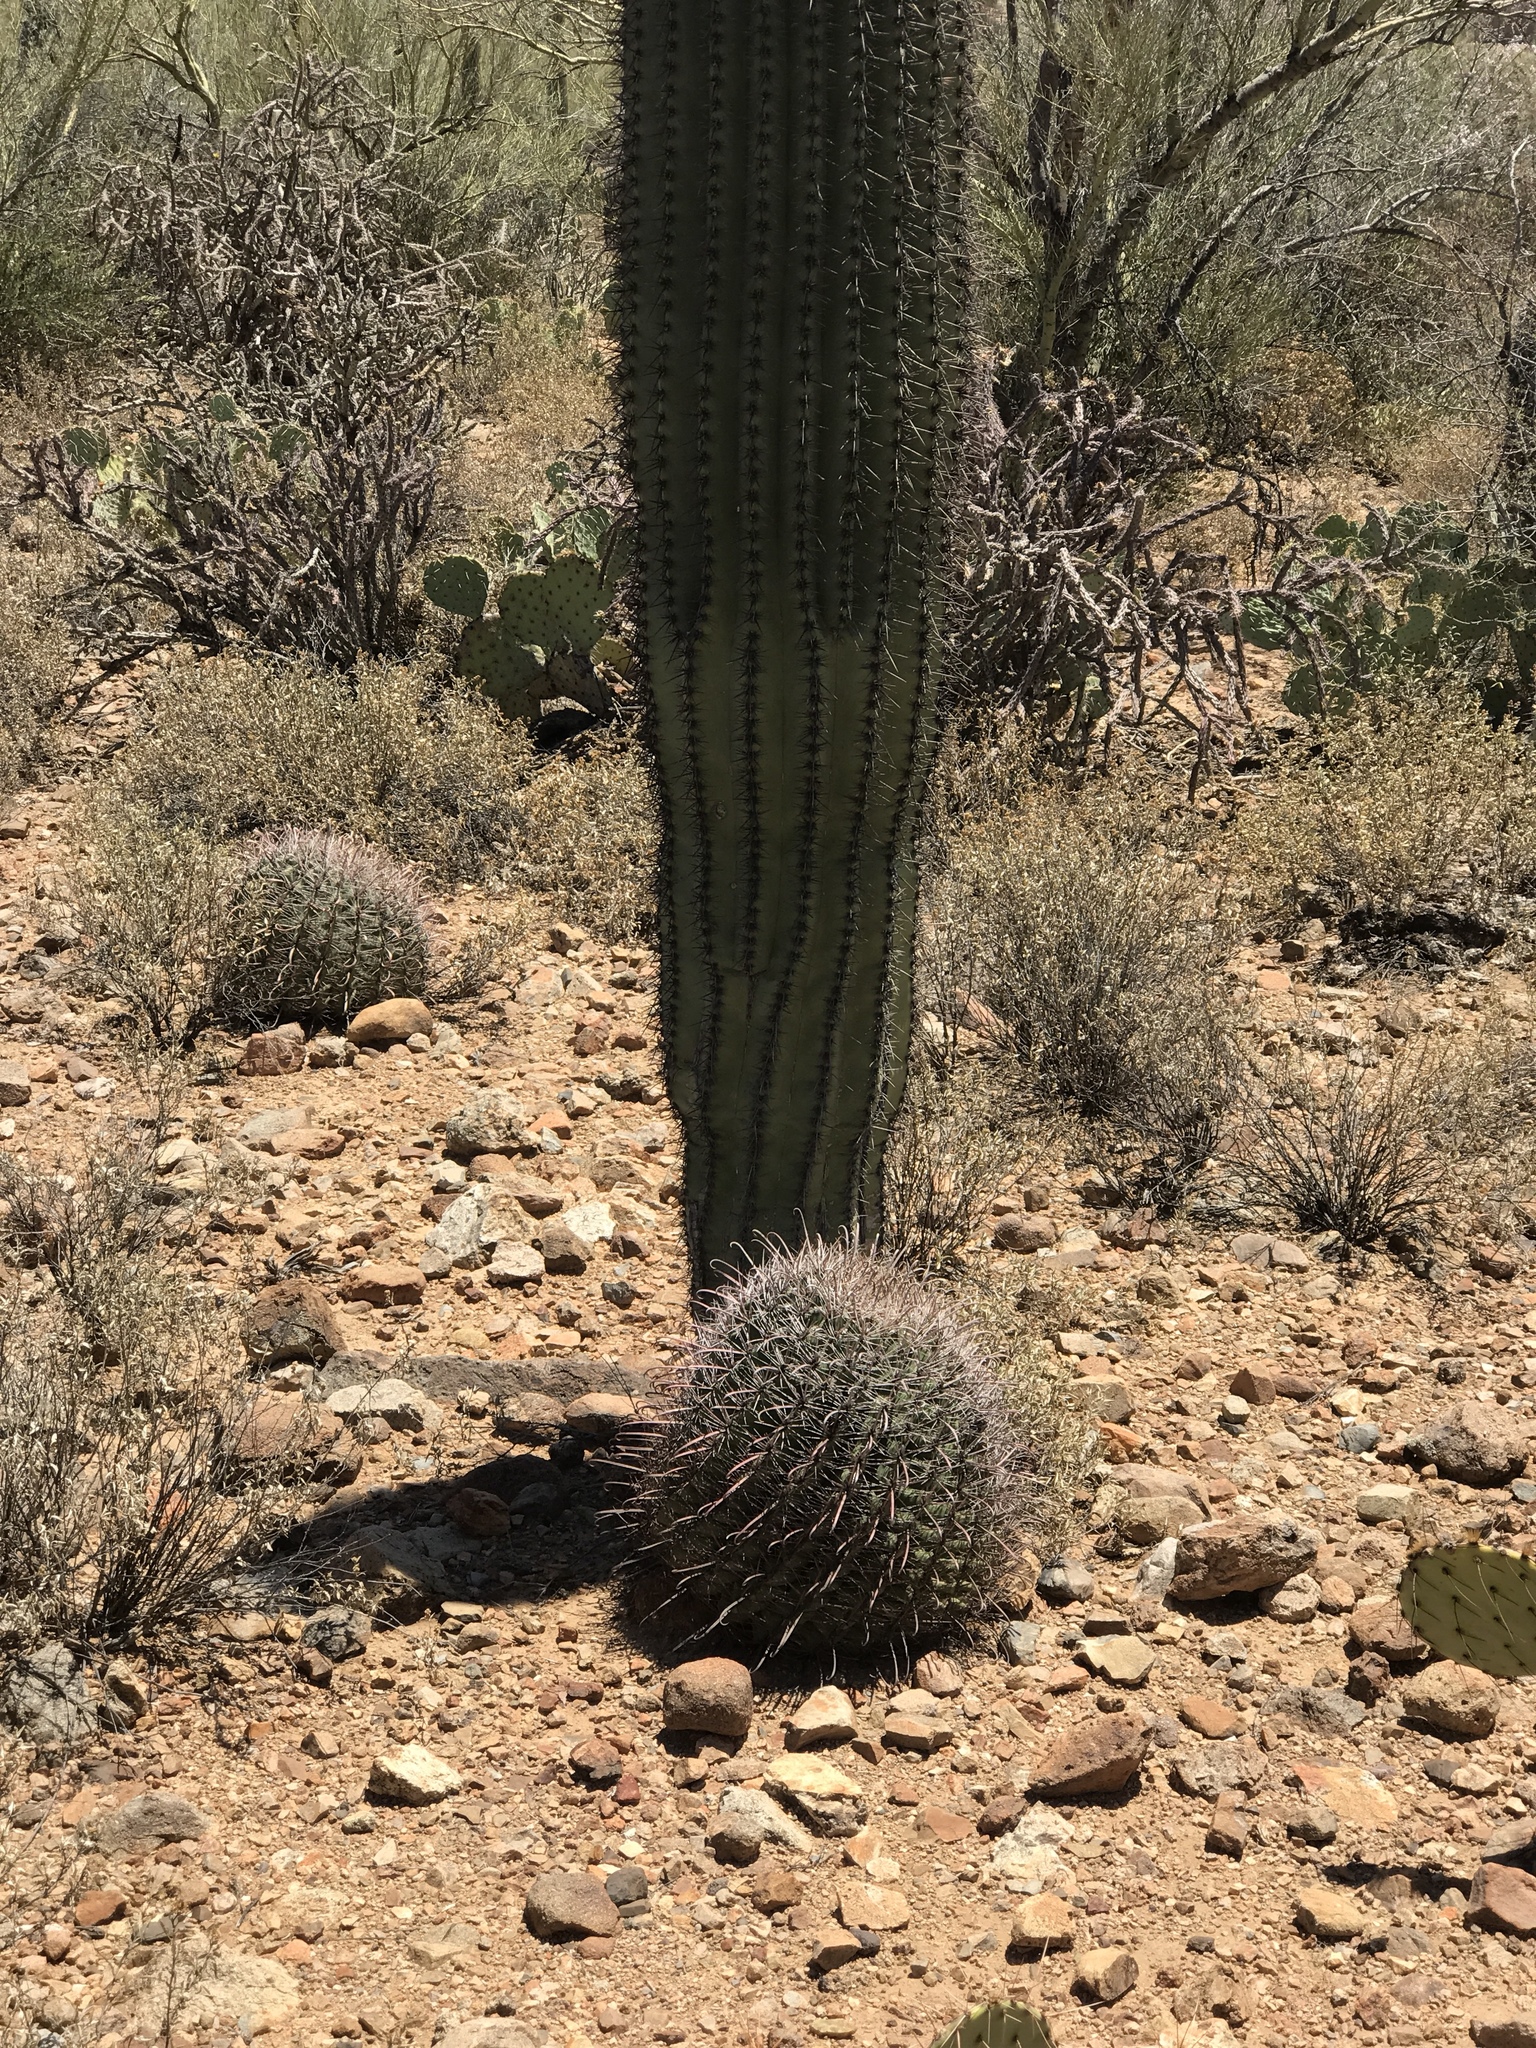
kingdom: Plantae
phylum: Tracheophyta
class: Magnoliopsida
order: Caryophyllales
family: Cactaceae
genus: Ferocactus
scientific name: Ferocactus wislizeni
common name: Candy barrel cactus
